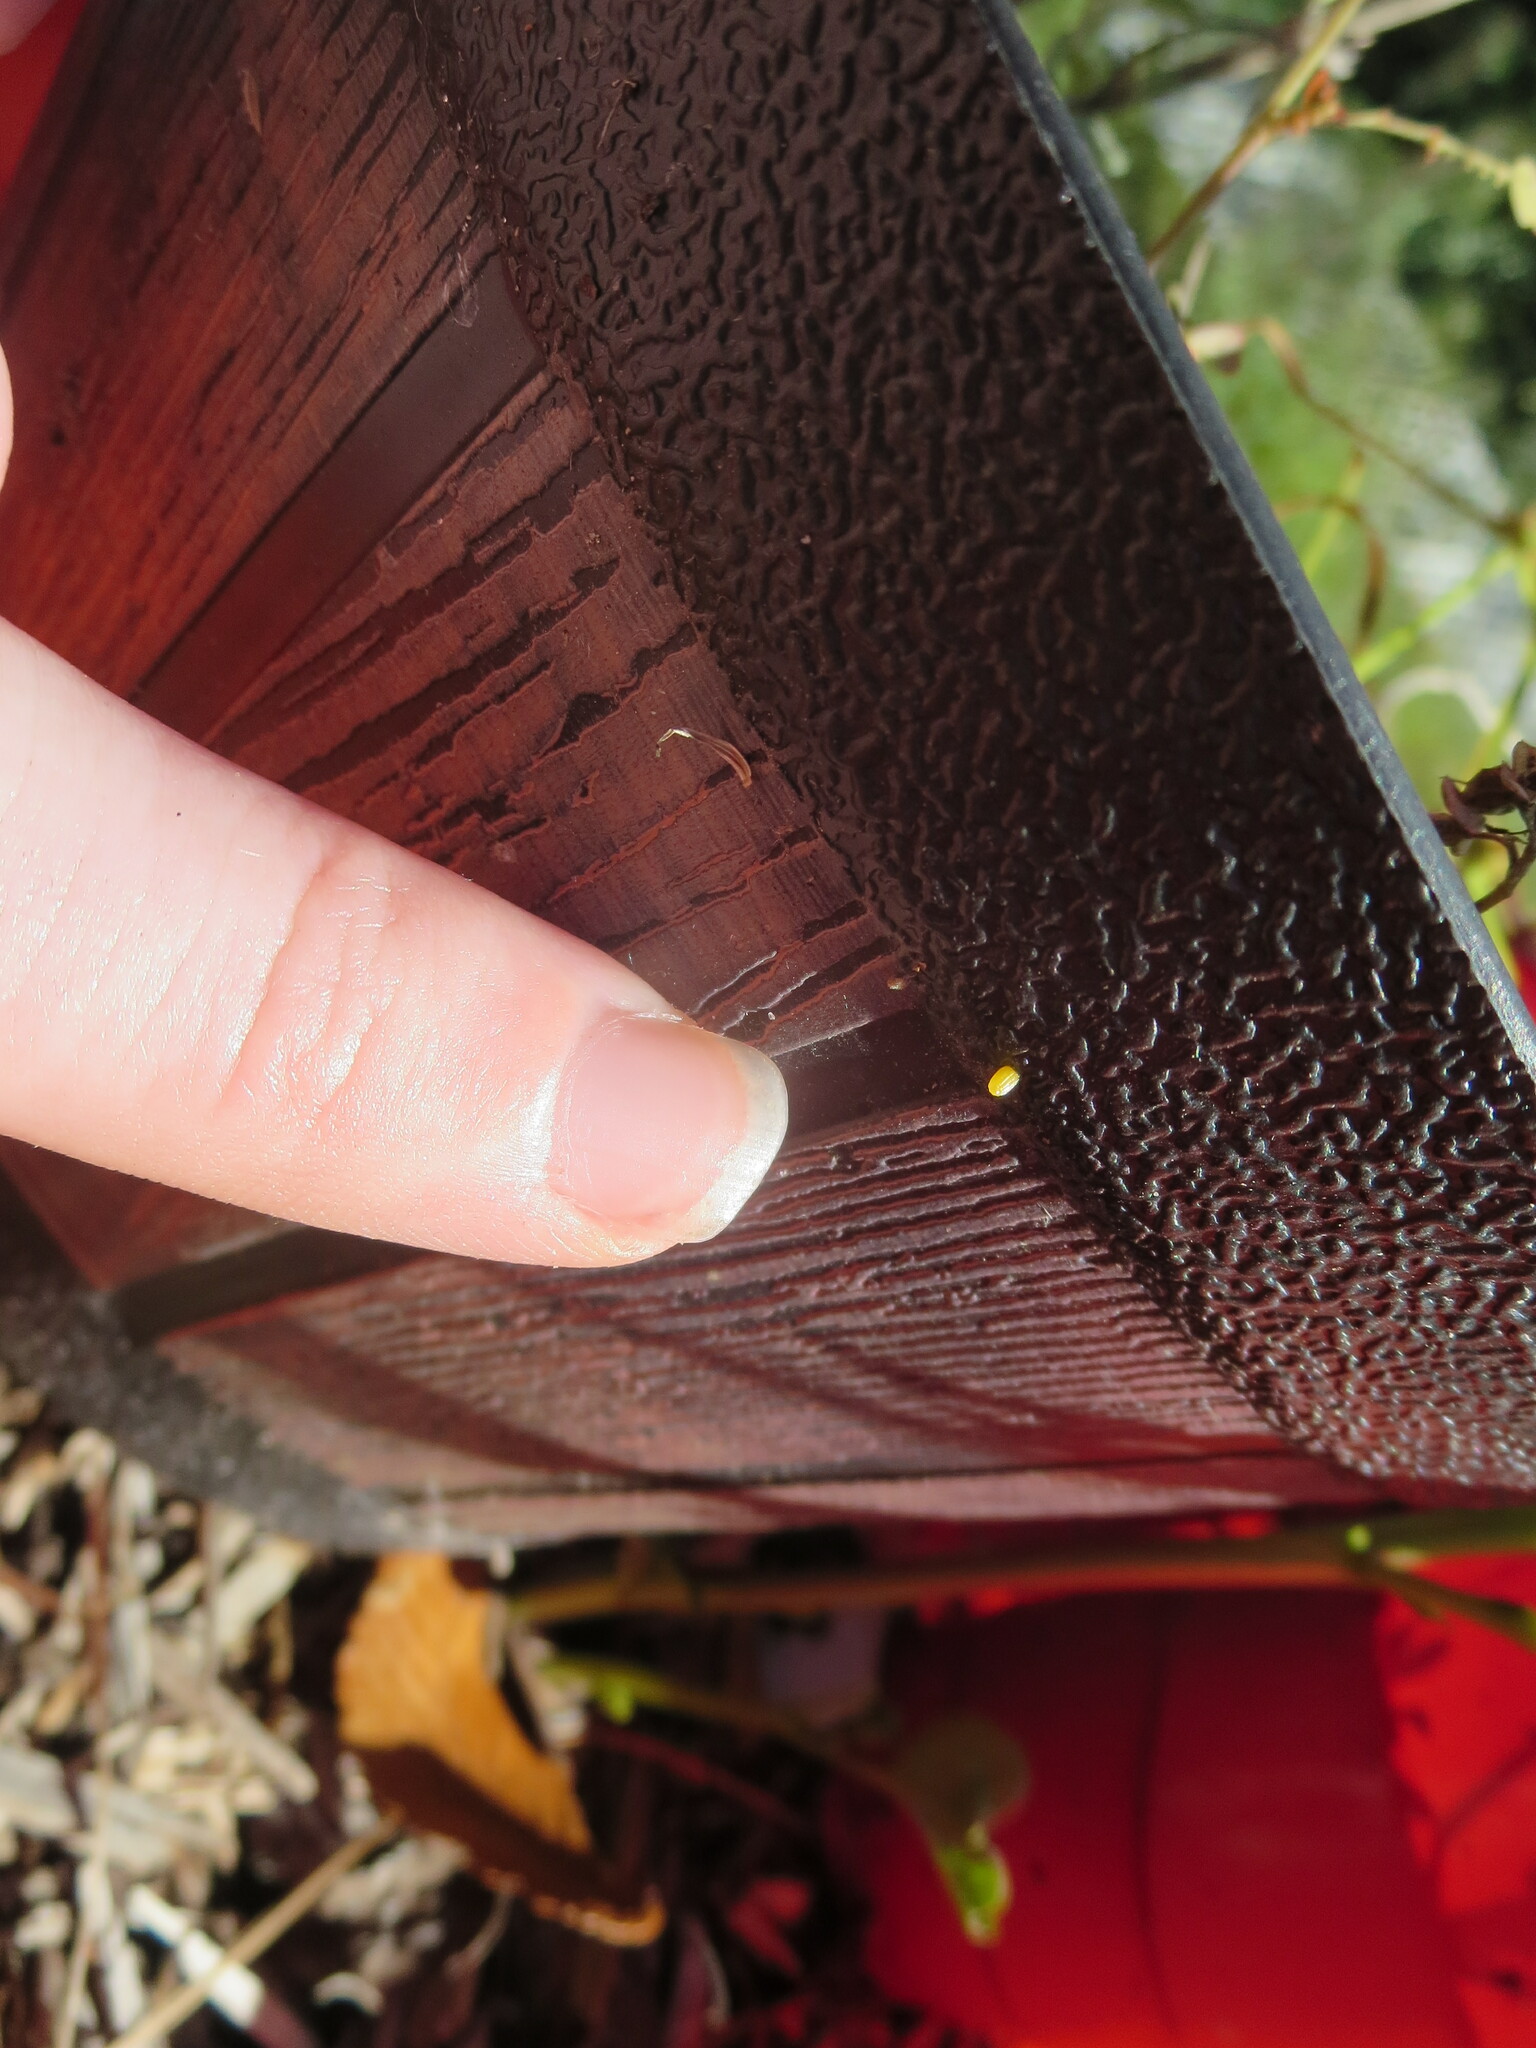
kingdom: Animalia
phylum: Arthropoda
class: Insecta
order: Lepidoptera
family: Nymphalidae
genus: Dione
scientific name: Dione vanillae
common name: Gulf fritillary
